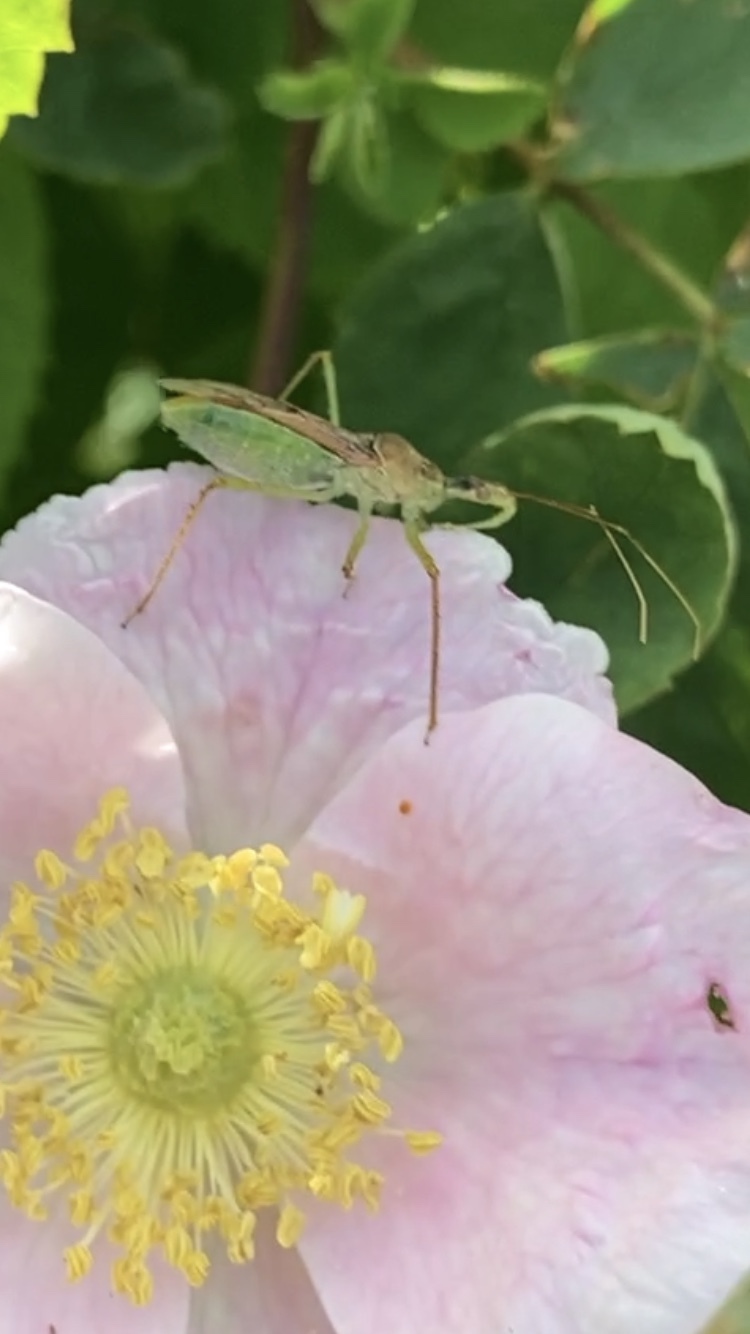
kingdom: Animalia
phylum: Arthropoda
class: Insecta
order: Hemiptera
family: Reduviidae
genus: Zelus
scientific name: Zelus renardii
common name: Assassin bug
